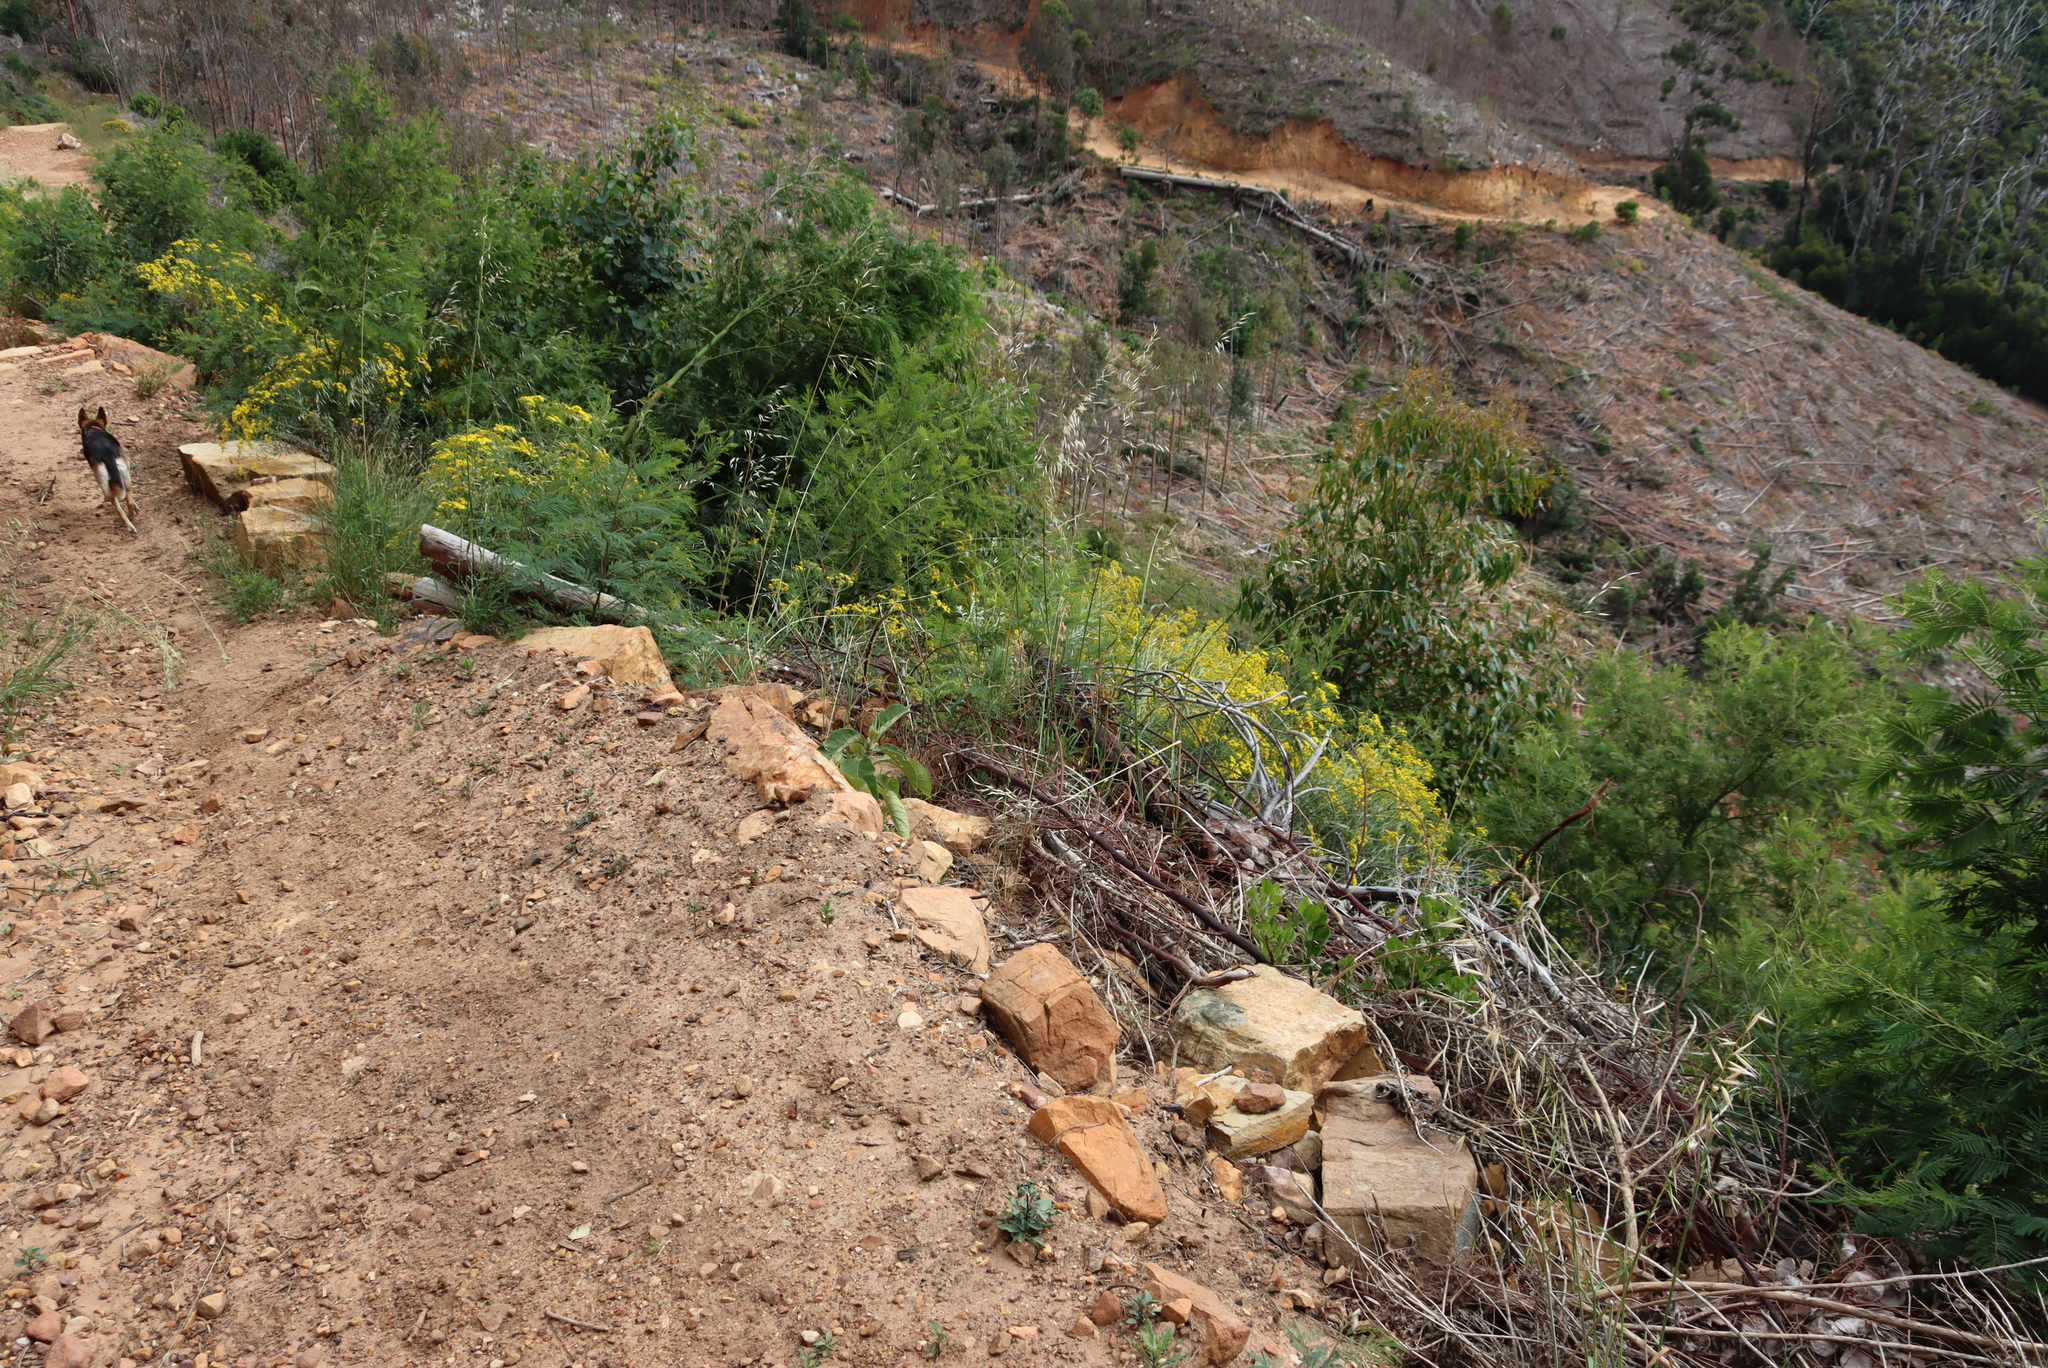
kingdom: Plantae
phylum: Tracheophyta
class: Liliopsida
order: Poales
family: Poaceae
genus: Avena
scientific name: Avena fatua
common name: Wild oat
